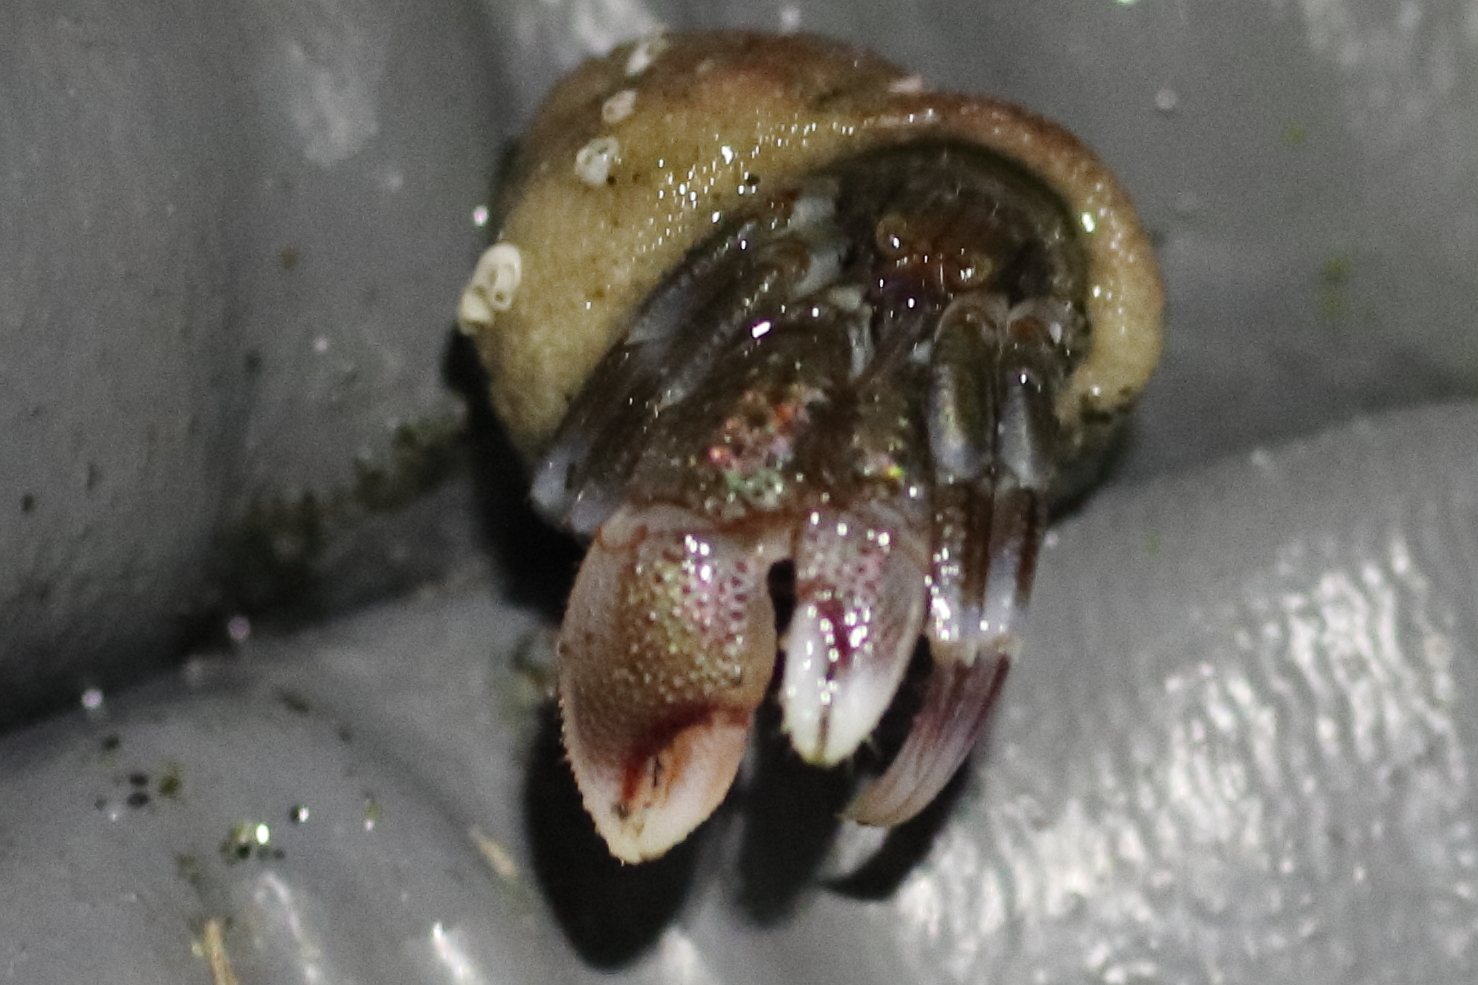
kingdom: Animalia
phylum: Arthropoda
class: Malacostraca
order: Decapoda
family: Paguridae
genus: Pagurus
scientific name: Pagurus ochotensis
